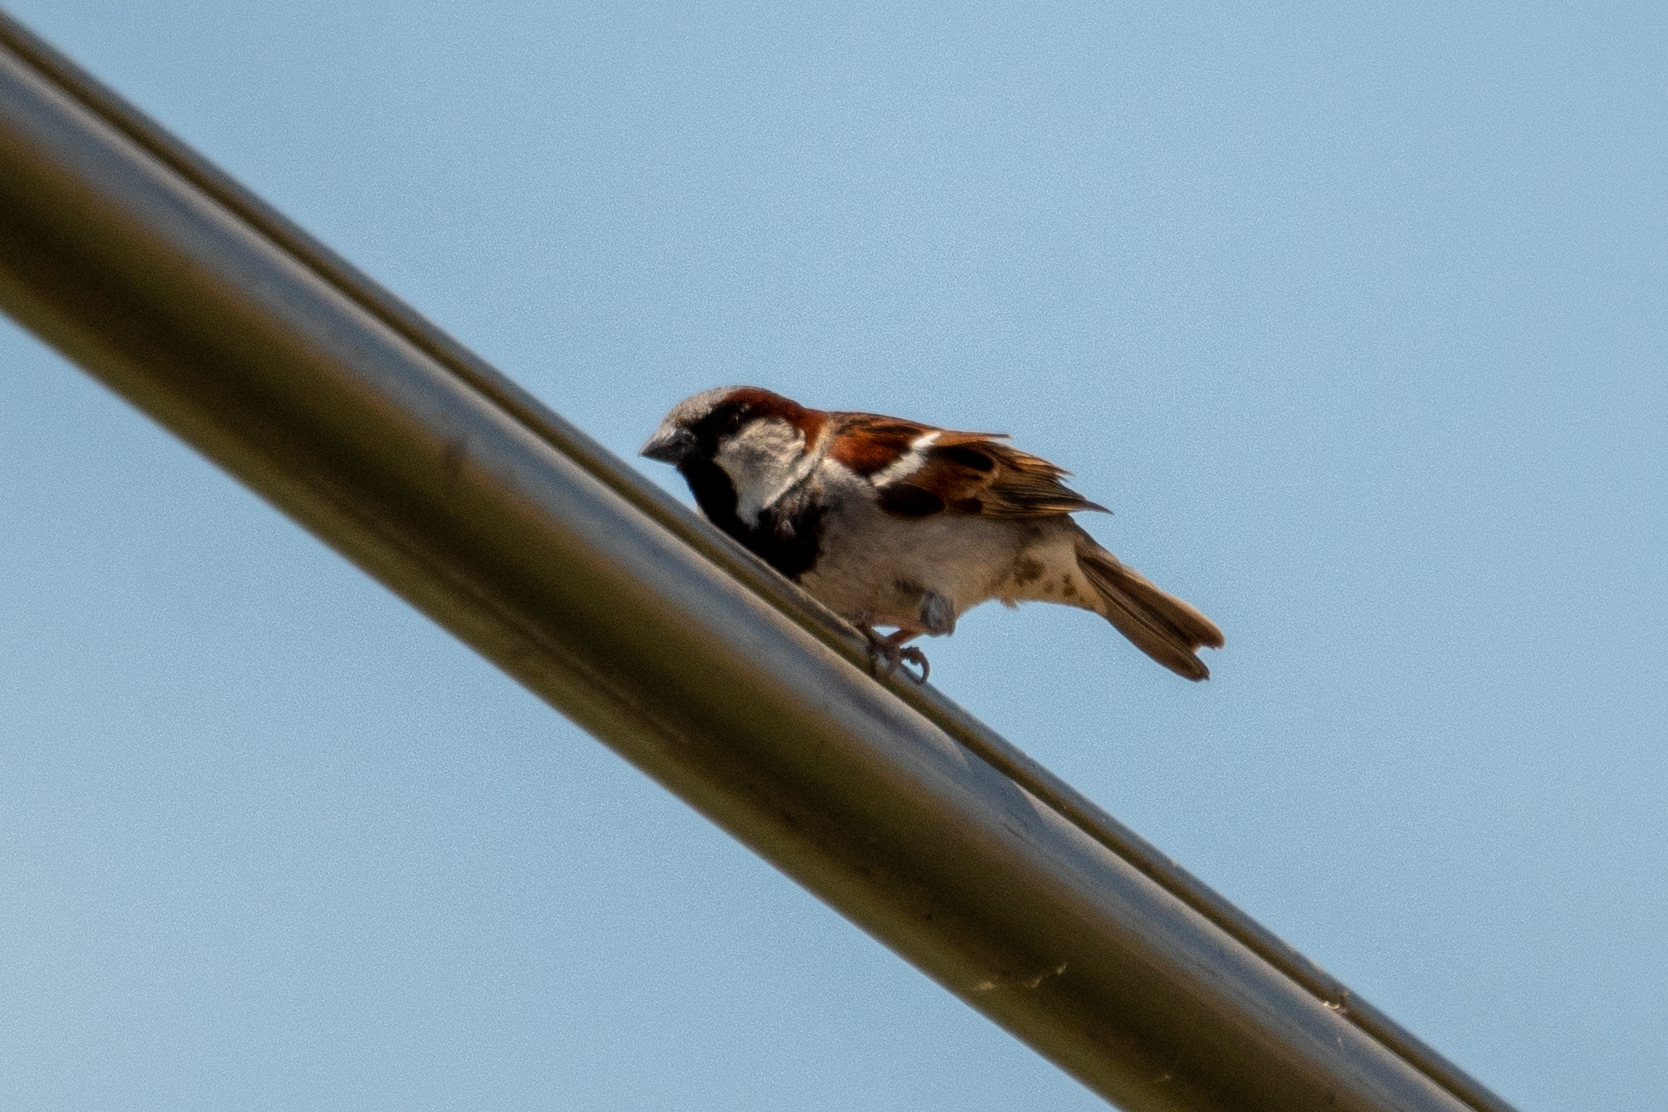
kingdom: Animalia
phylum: Chordata
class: Aves
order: Passeriformes
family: Passeridae
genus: Passer
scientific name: Passer domesticus
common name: House sparrow
